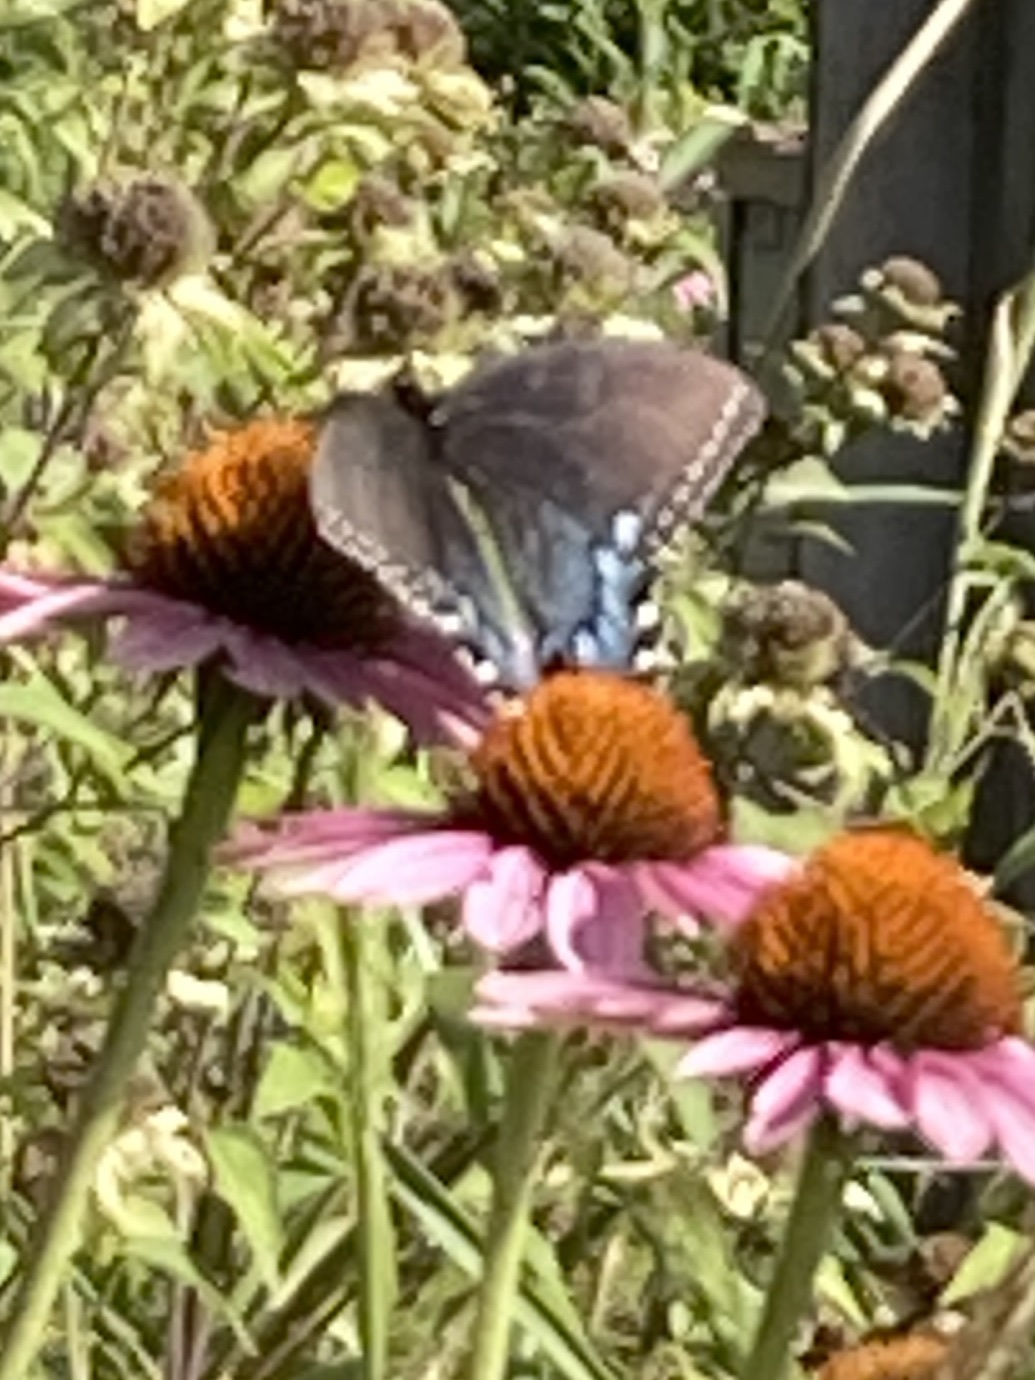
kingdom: Animalia
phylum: Arthropoda
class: Insecta
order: Lepidoptera
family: Papilionidae
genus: Papilio
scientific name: Papilio glaucus
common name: Tiger swallowtail
